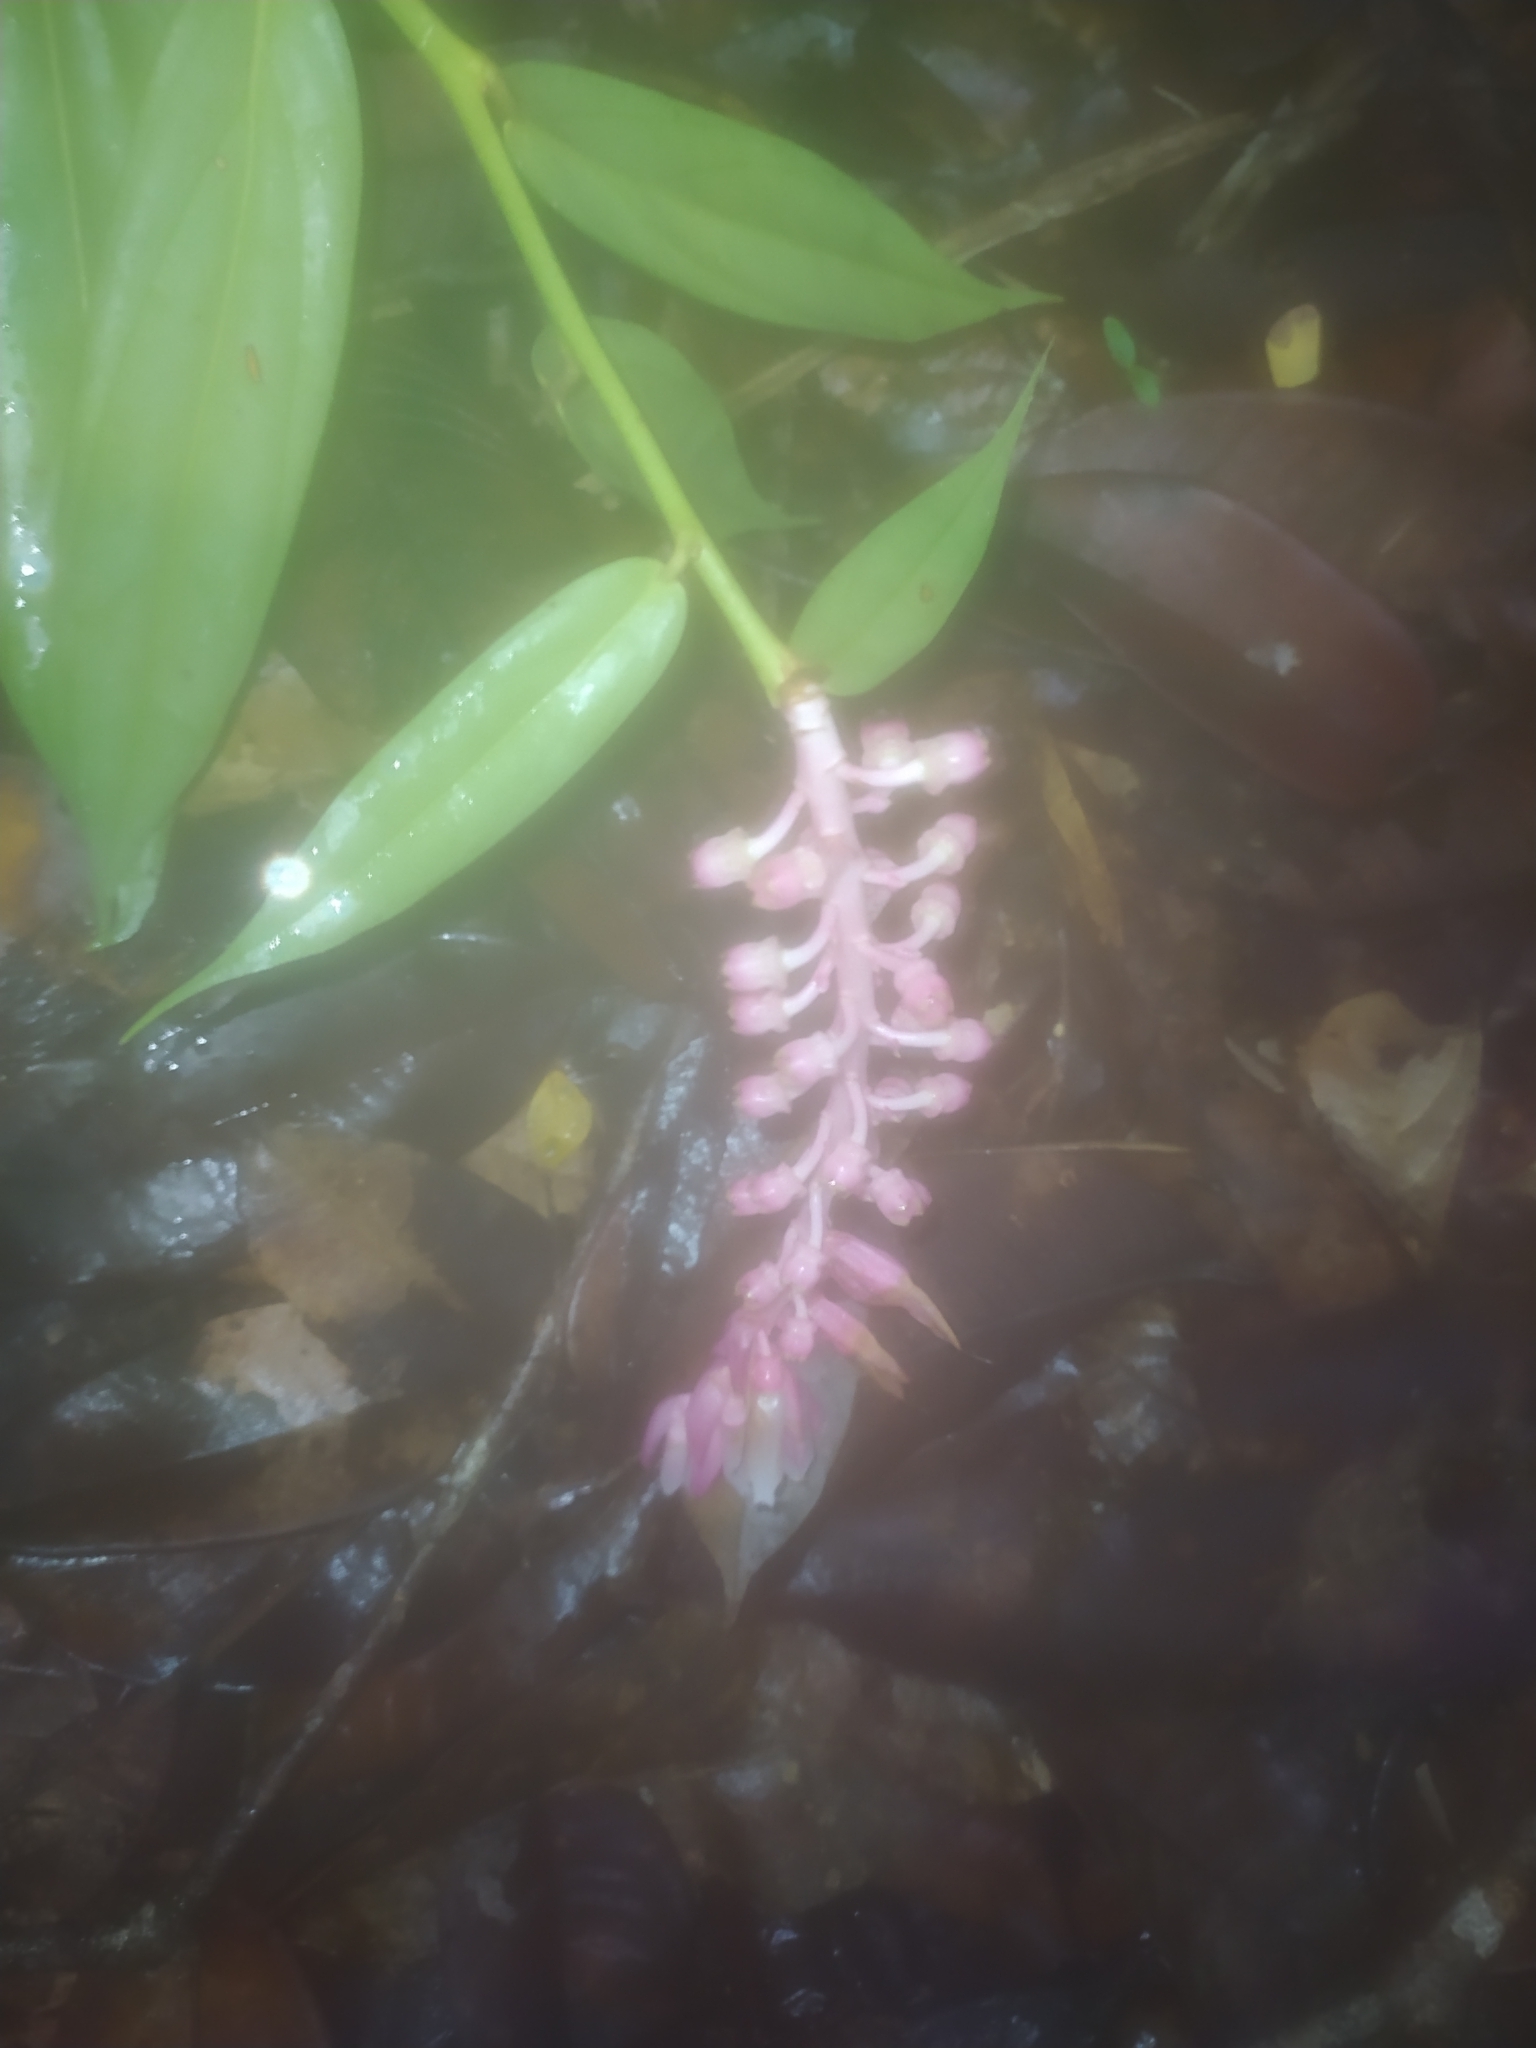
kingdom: Plantae
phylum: Tracheophyta
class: Magnoliopsida
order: Ericales
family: Ericaceae
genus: Cavendishia
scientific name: Cavendishia callista
